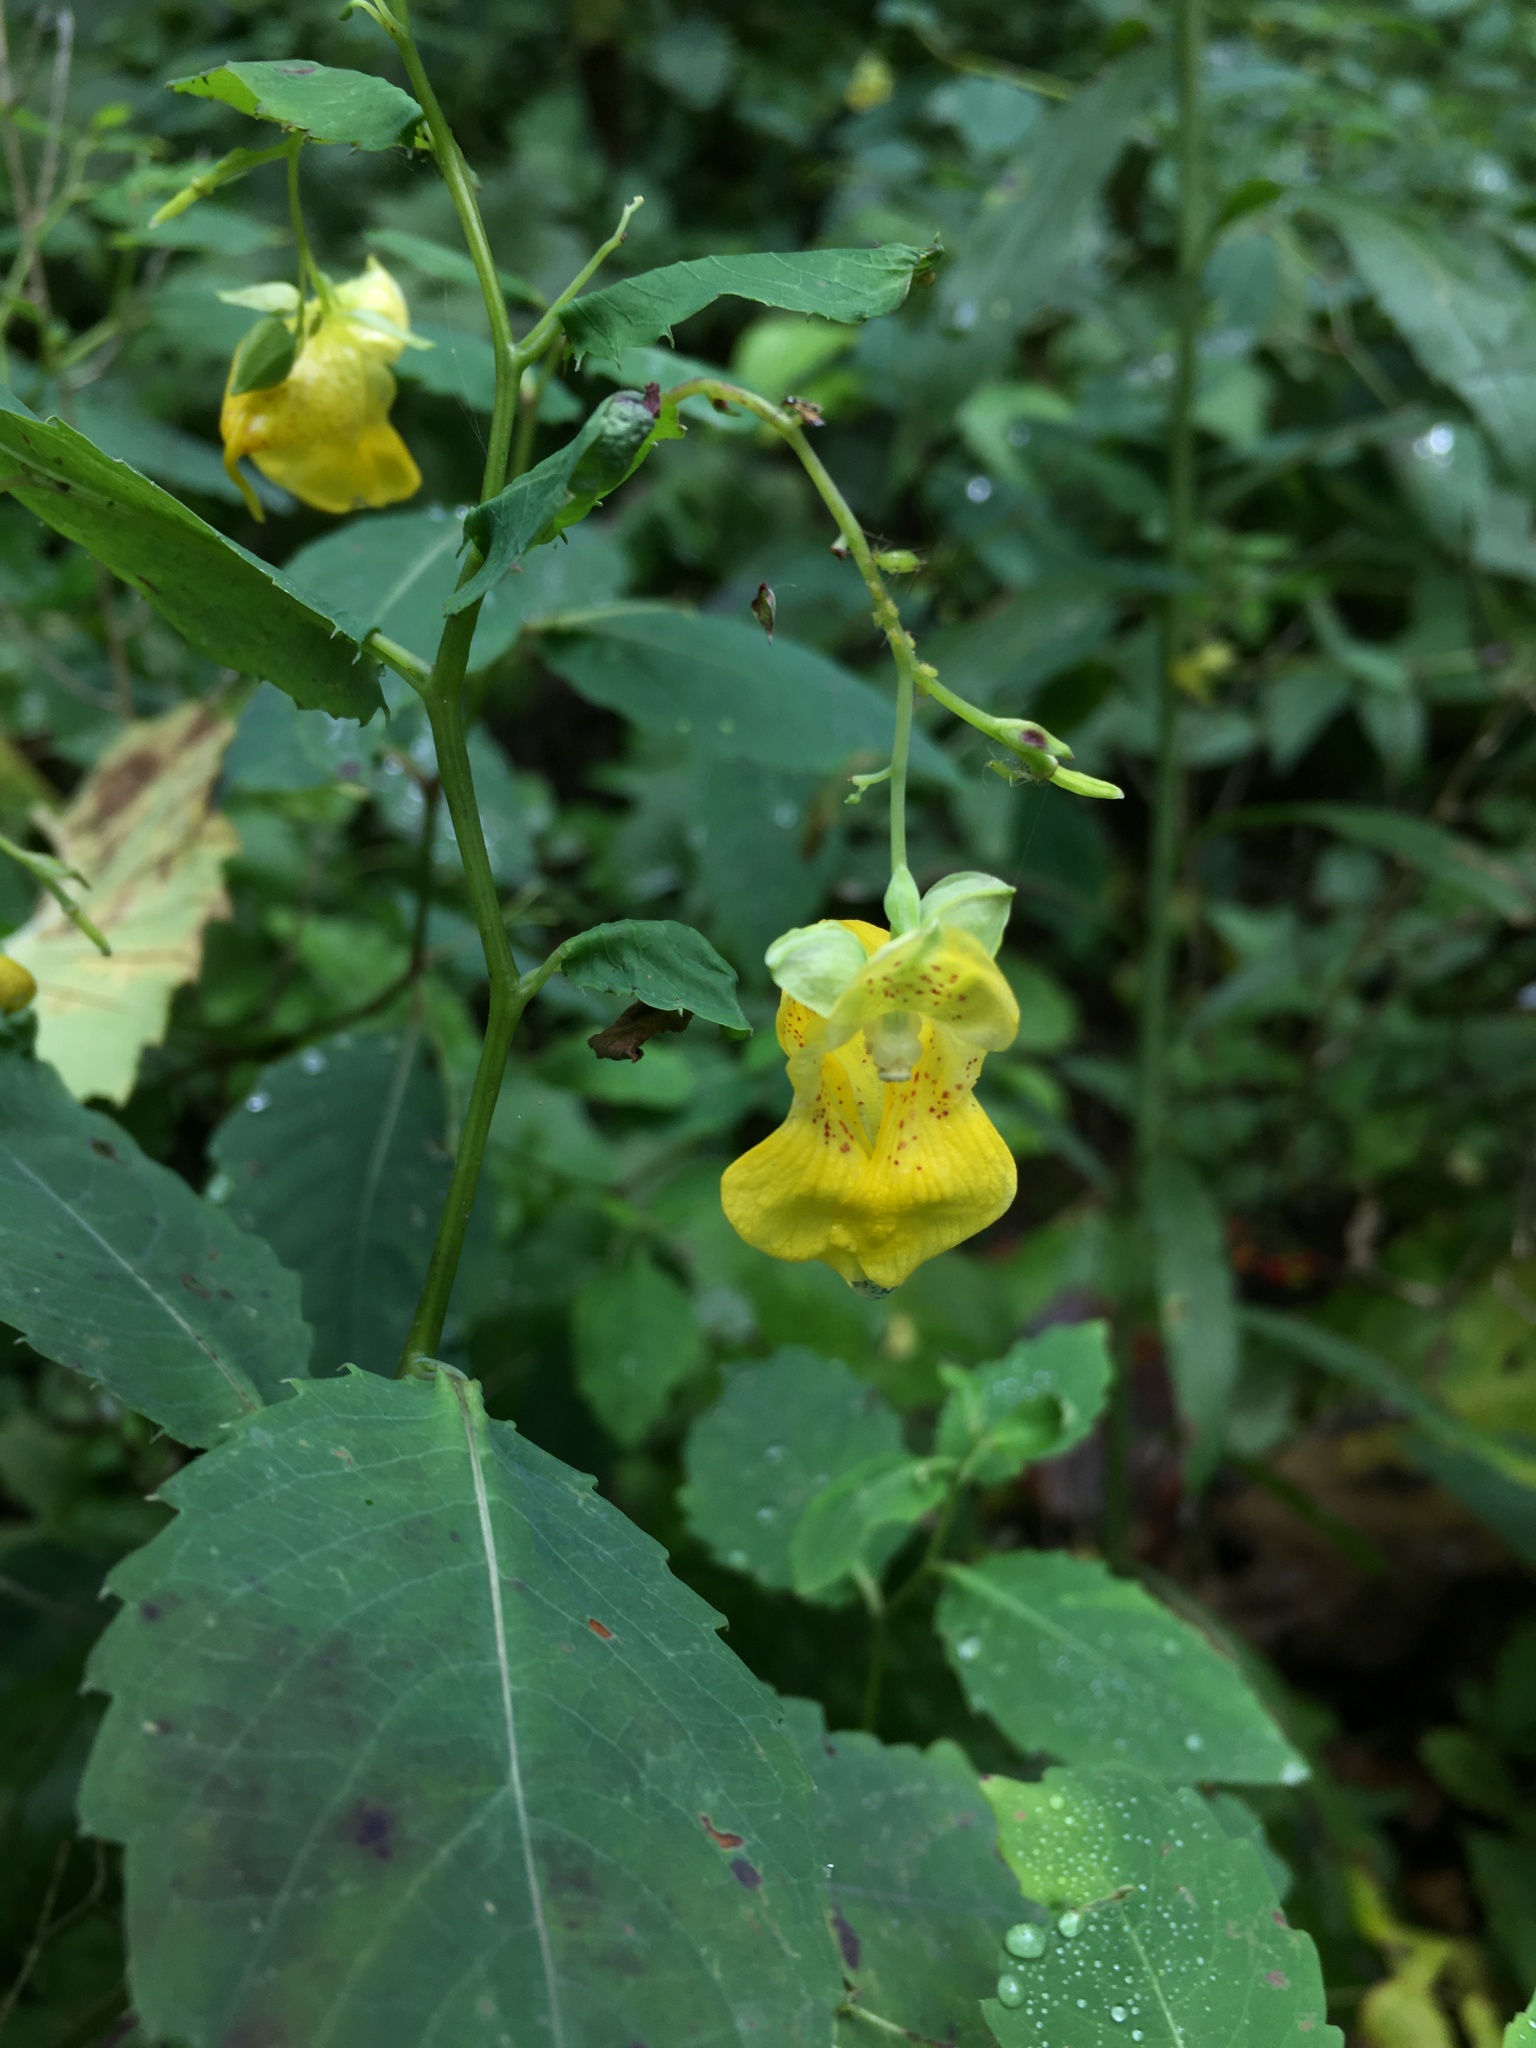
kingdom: Plantae
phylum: Tracheophyta
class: Magnoliopsida
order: Ericales
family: Balsaminaceae
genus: Impatiens
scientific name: Impatiens pallida
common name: Pale snapweed
